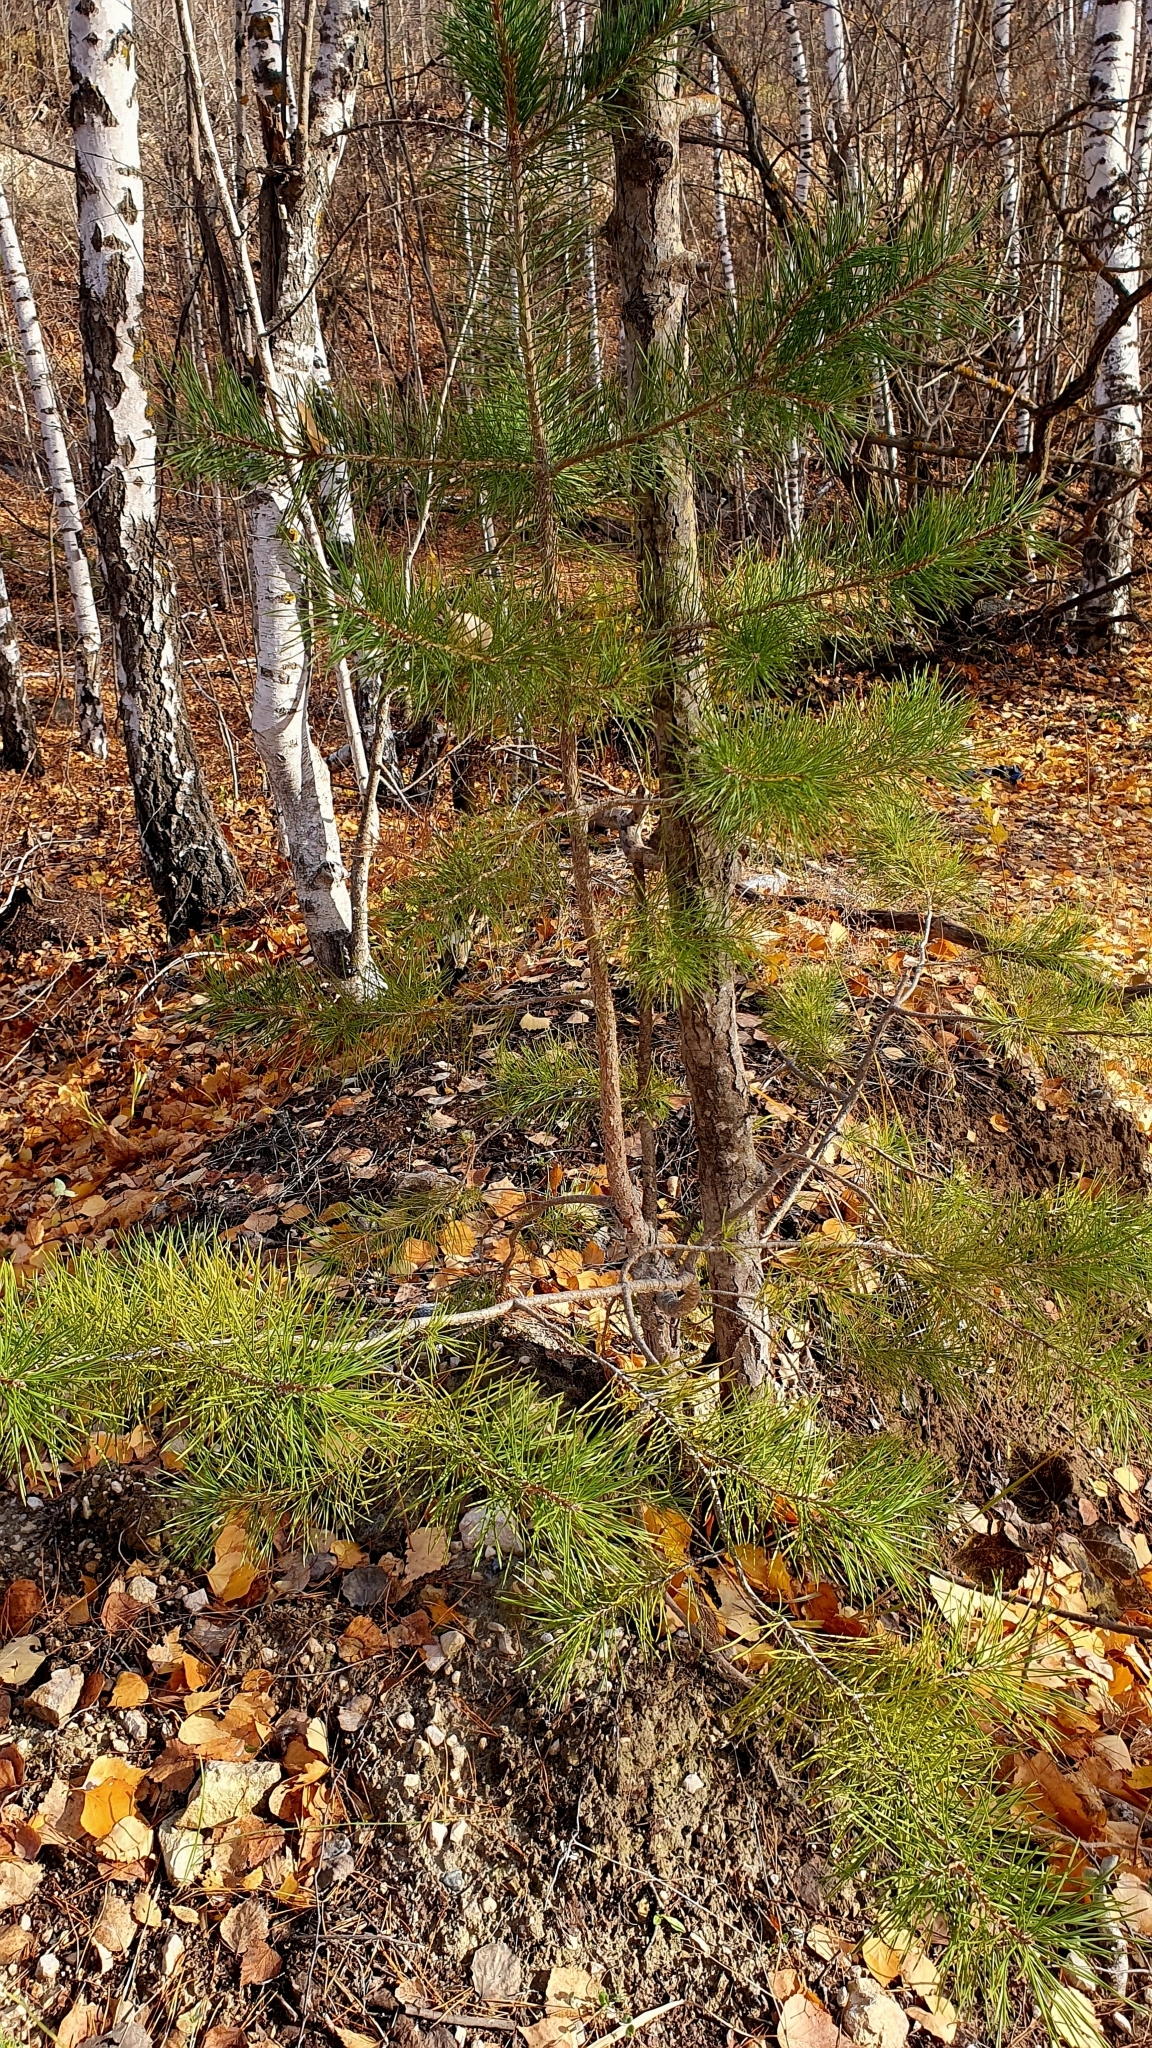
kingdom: Plantae
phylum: Tracheophyta
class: Pinopsida
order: Pinales
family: Pinaceae
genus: Pinus
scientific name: Pinus sylvestris
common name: Scots pine
